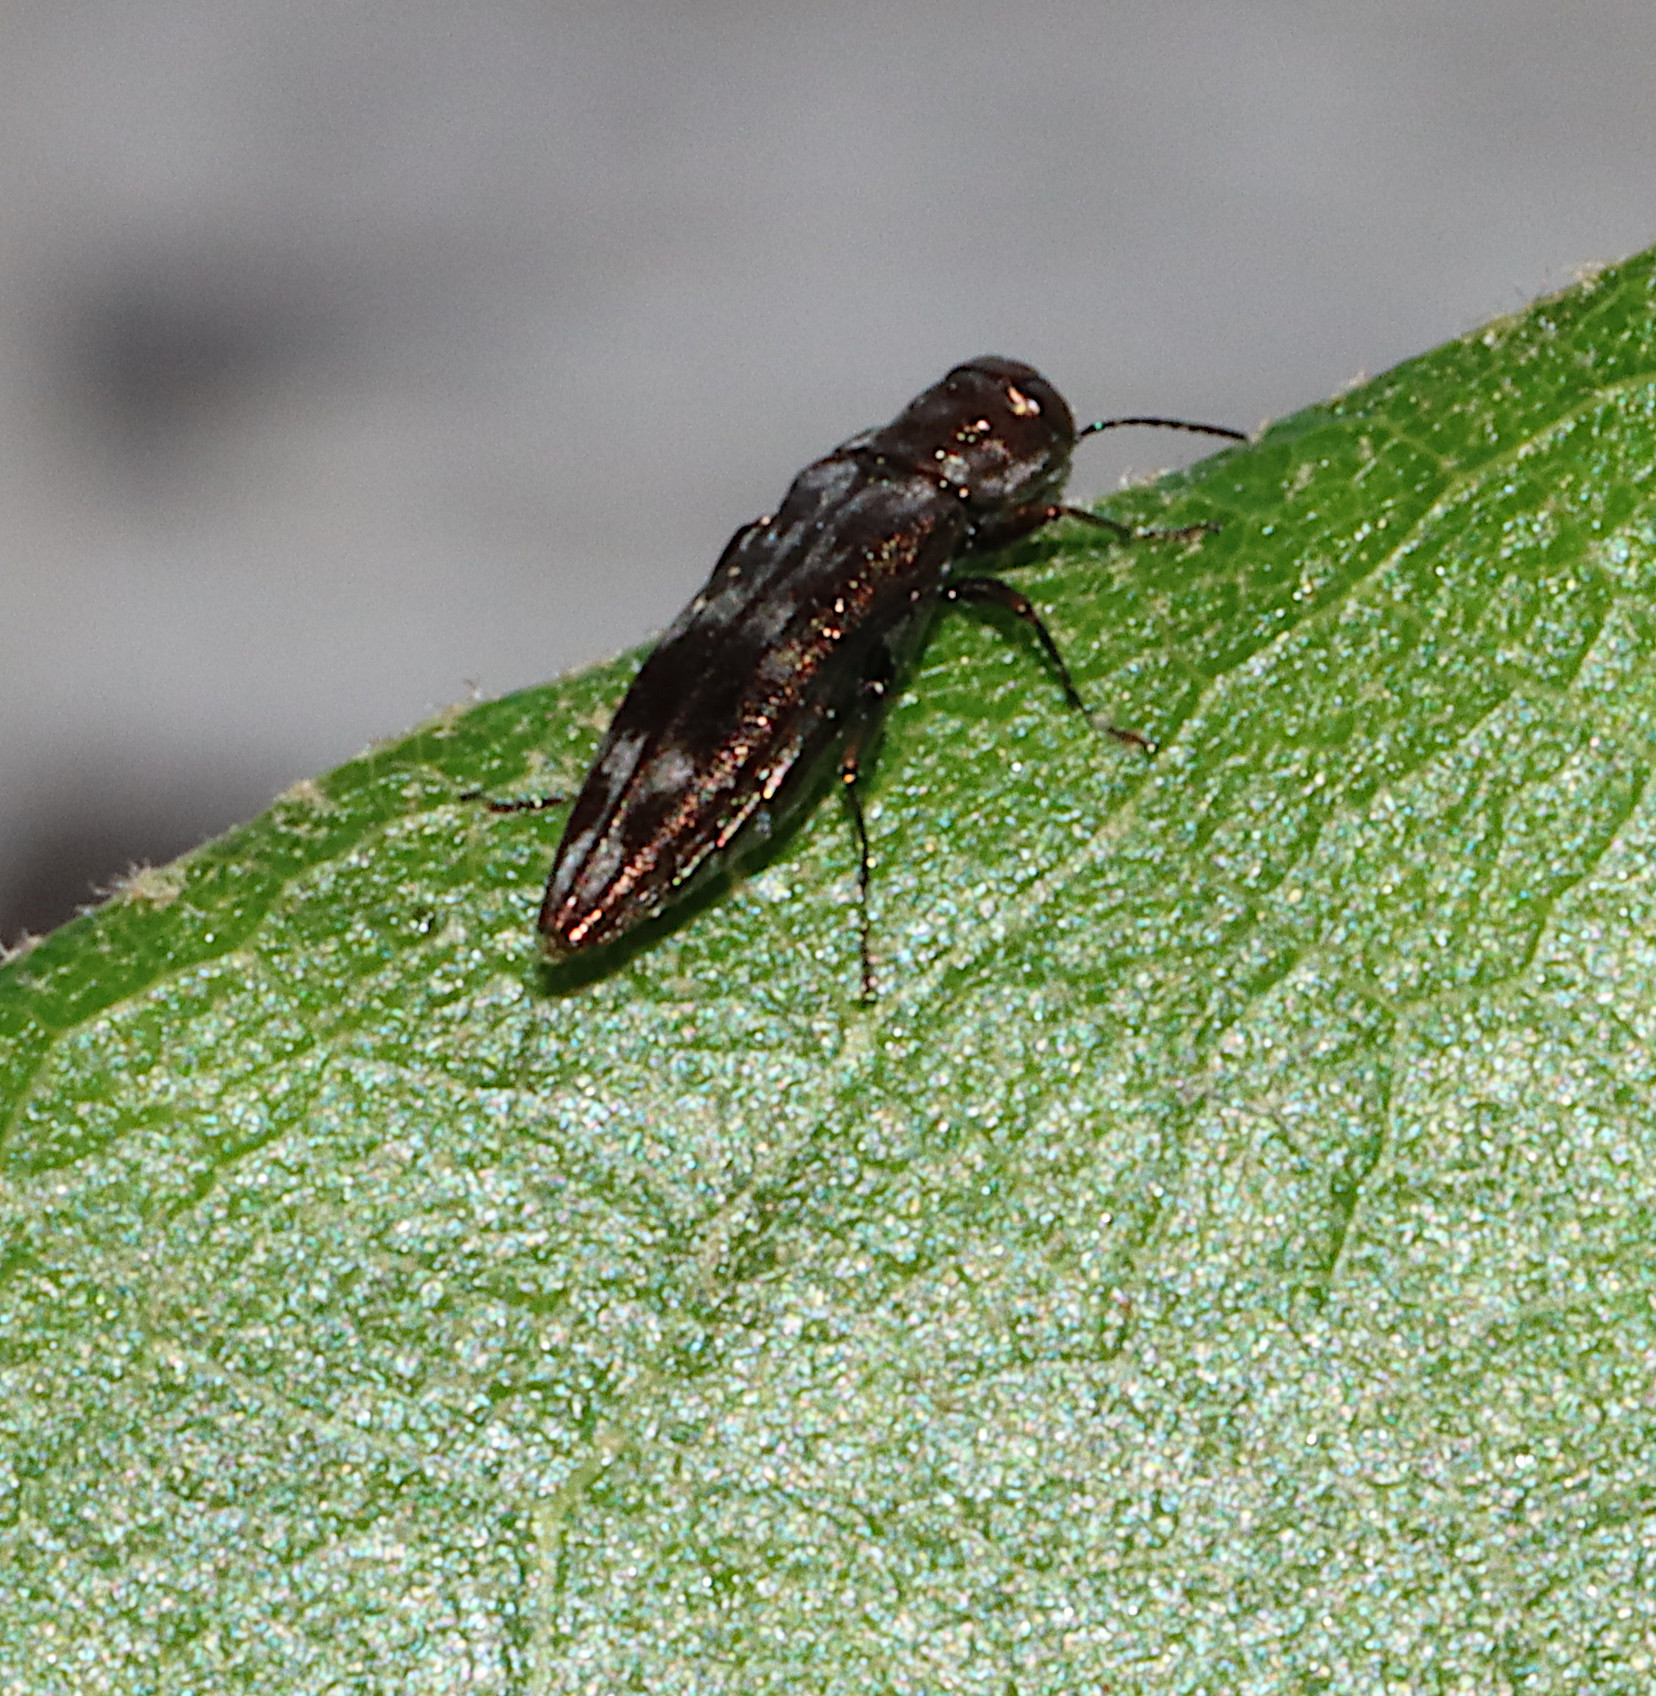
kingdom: Animalia
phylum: Arthropoda
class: Insecta
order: Coleoptera
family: Buprestidae
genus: Agrilus
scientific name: Agrilus lecontei
